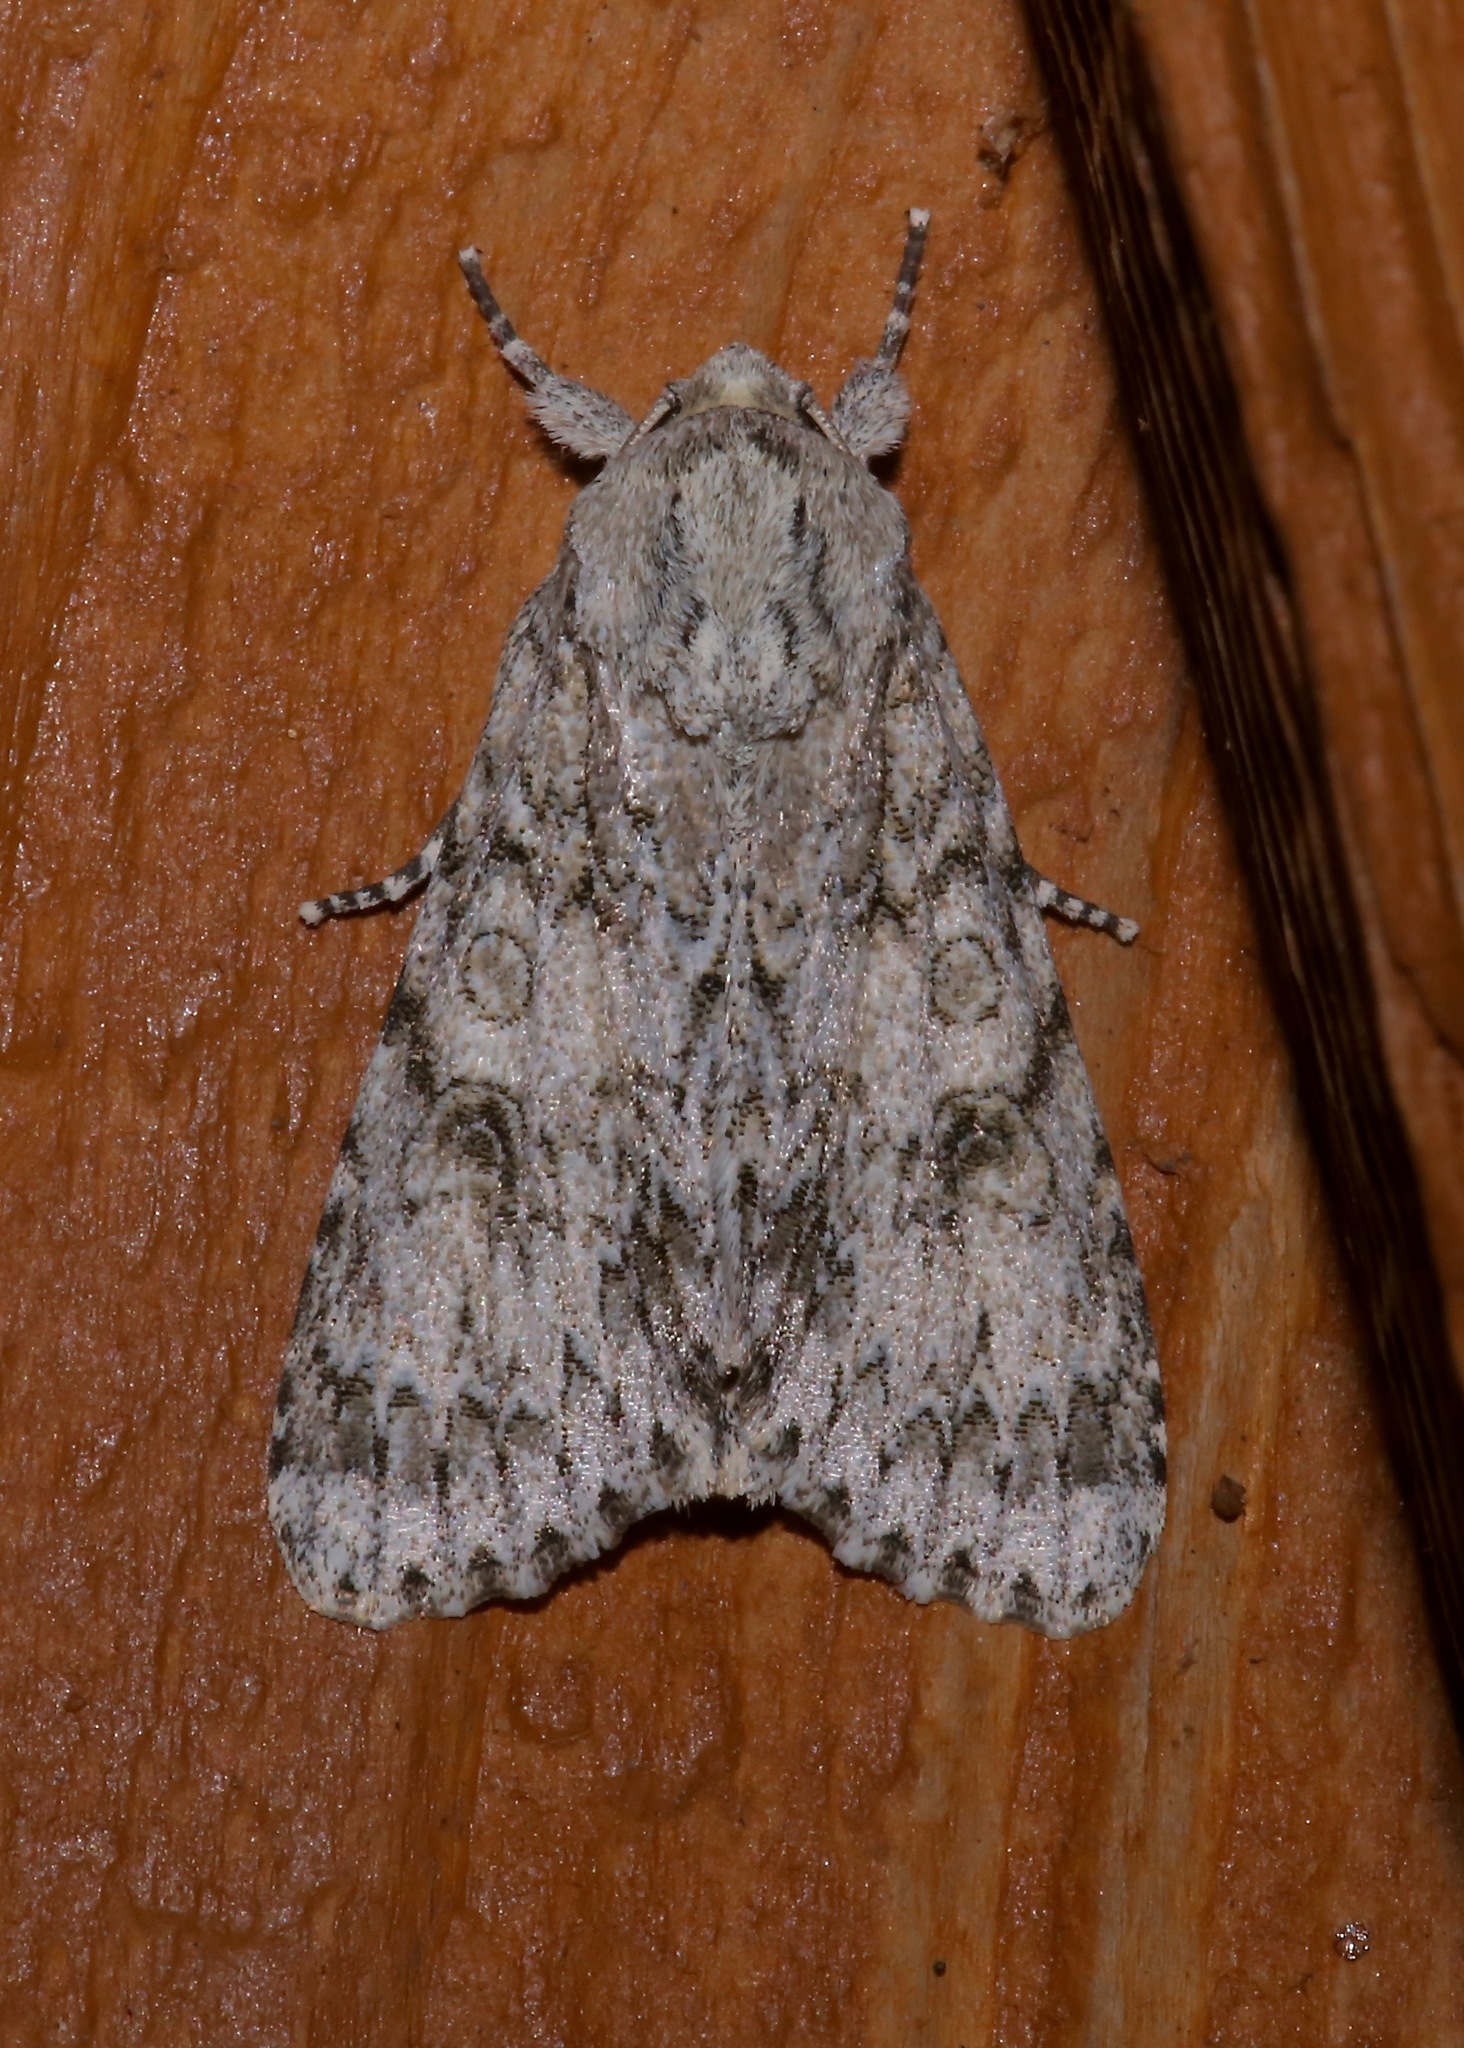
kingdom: Animalia
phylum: Arthropoda
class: Insecta
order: Lepidoptera
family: Noctuidae
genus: Acronicta
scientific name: Acronicta impleta
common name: Powdered dagger
